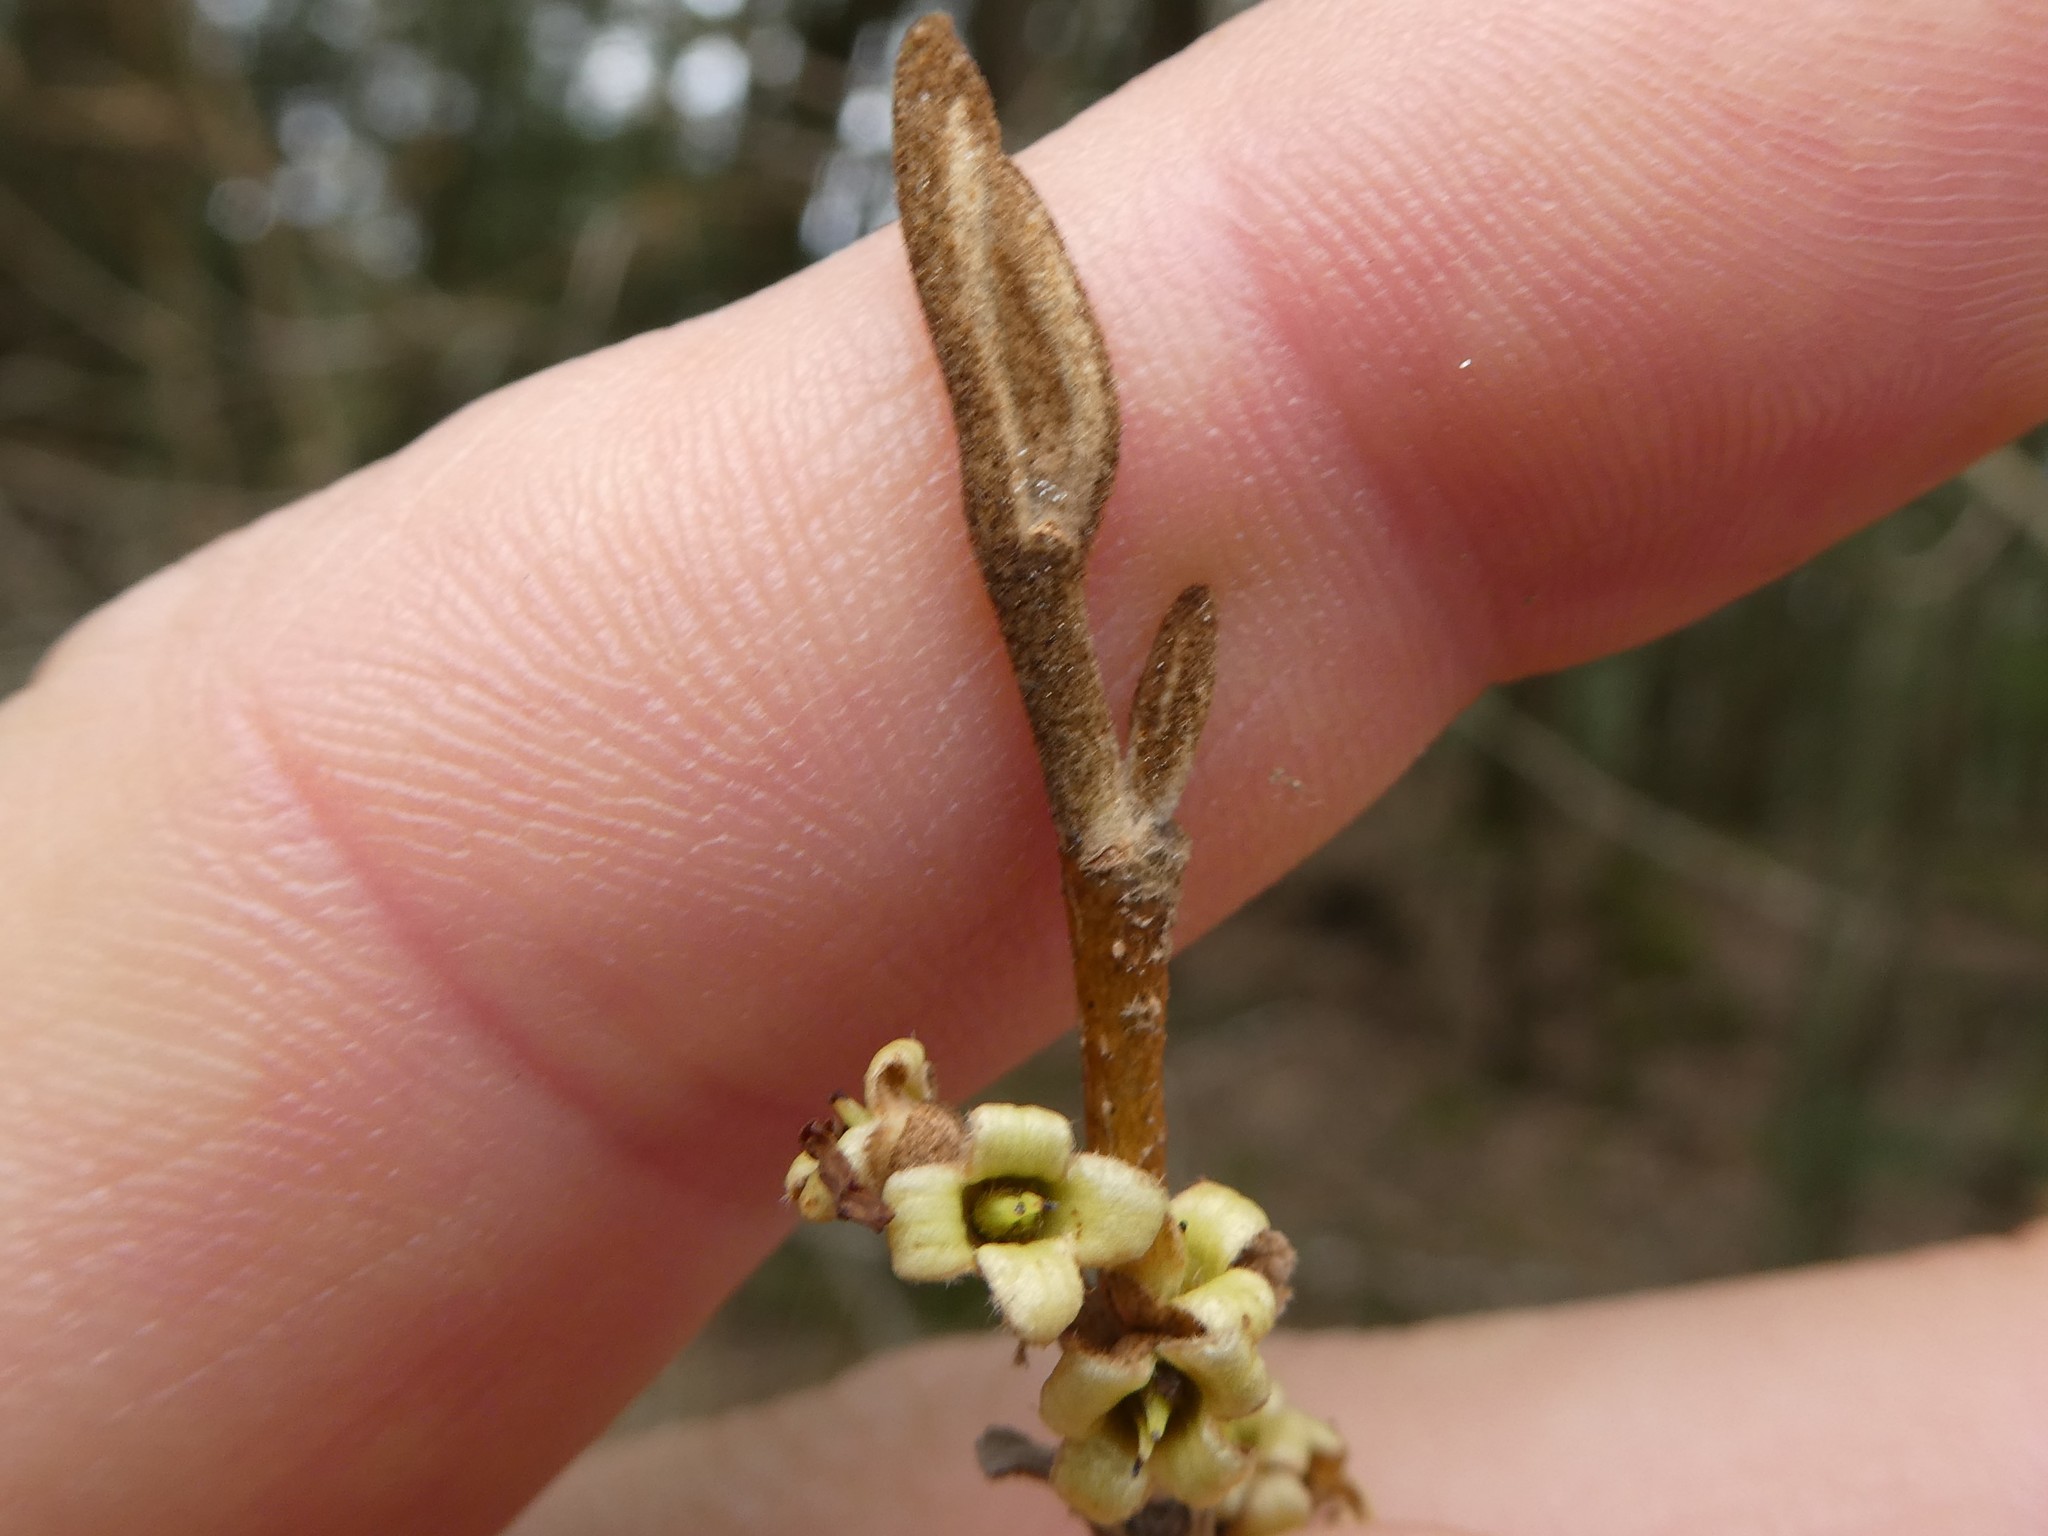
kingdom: Plantae
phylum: Tracheophyta
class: Magnoliopsida
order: Saxifragales
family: Hamamelidaceae
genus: Hamamelis
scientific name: Hamamelis virginiana
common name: Witch-hazel
